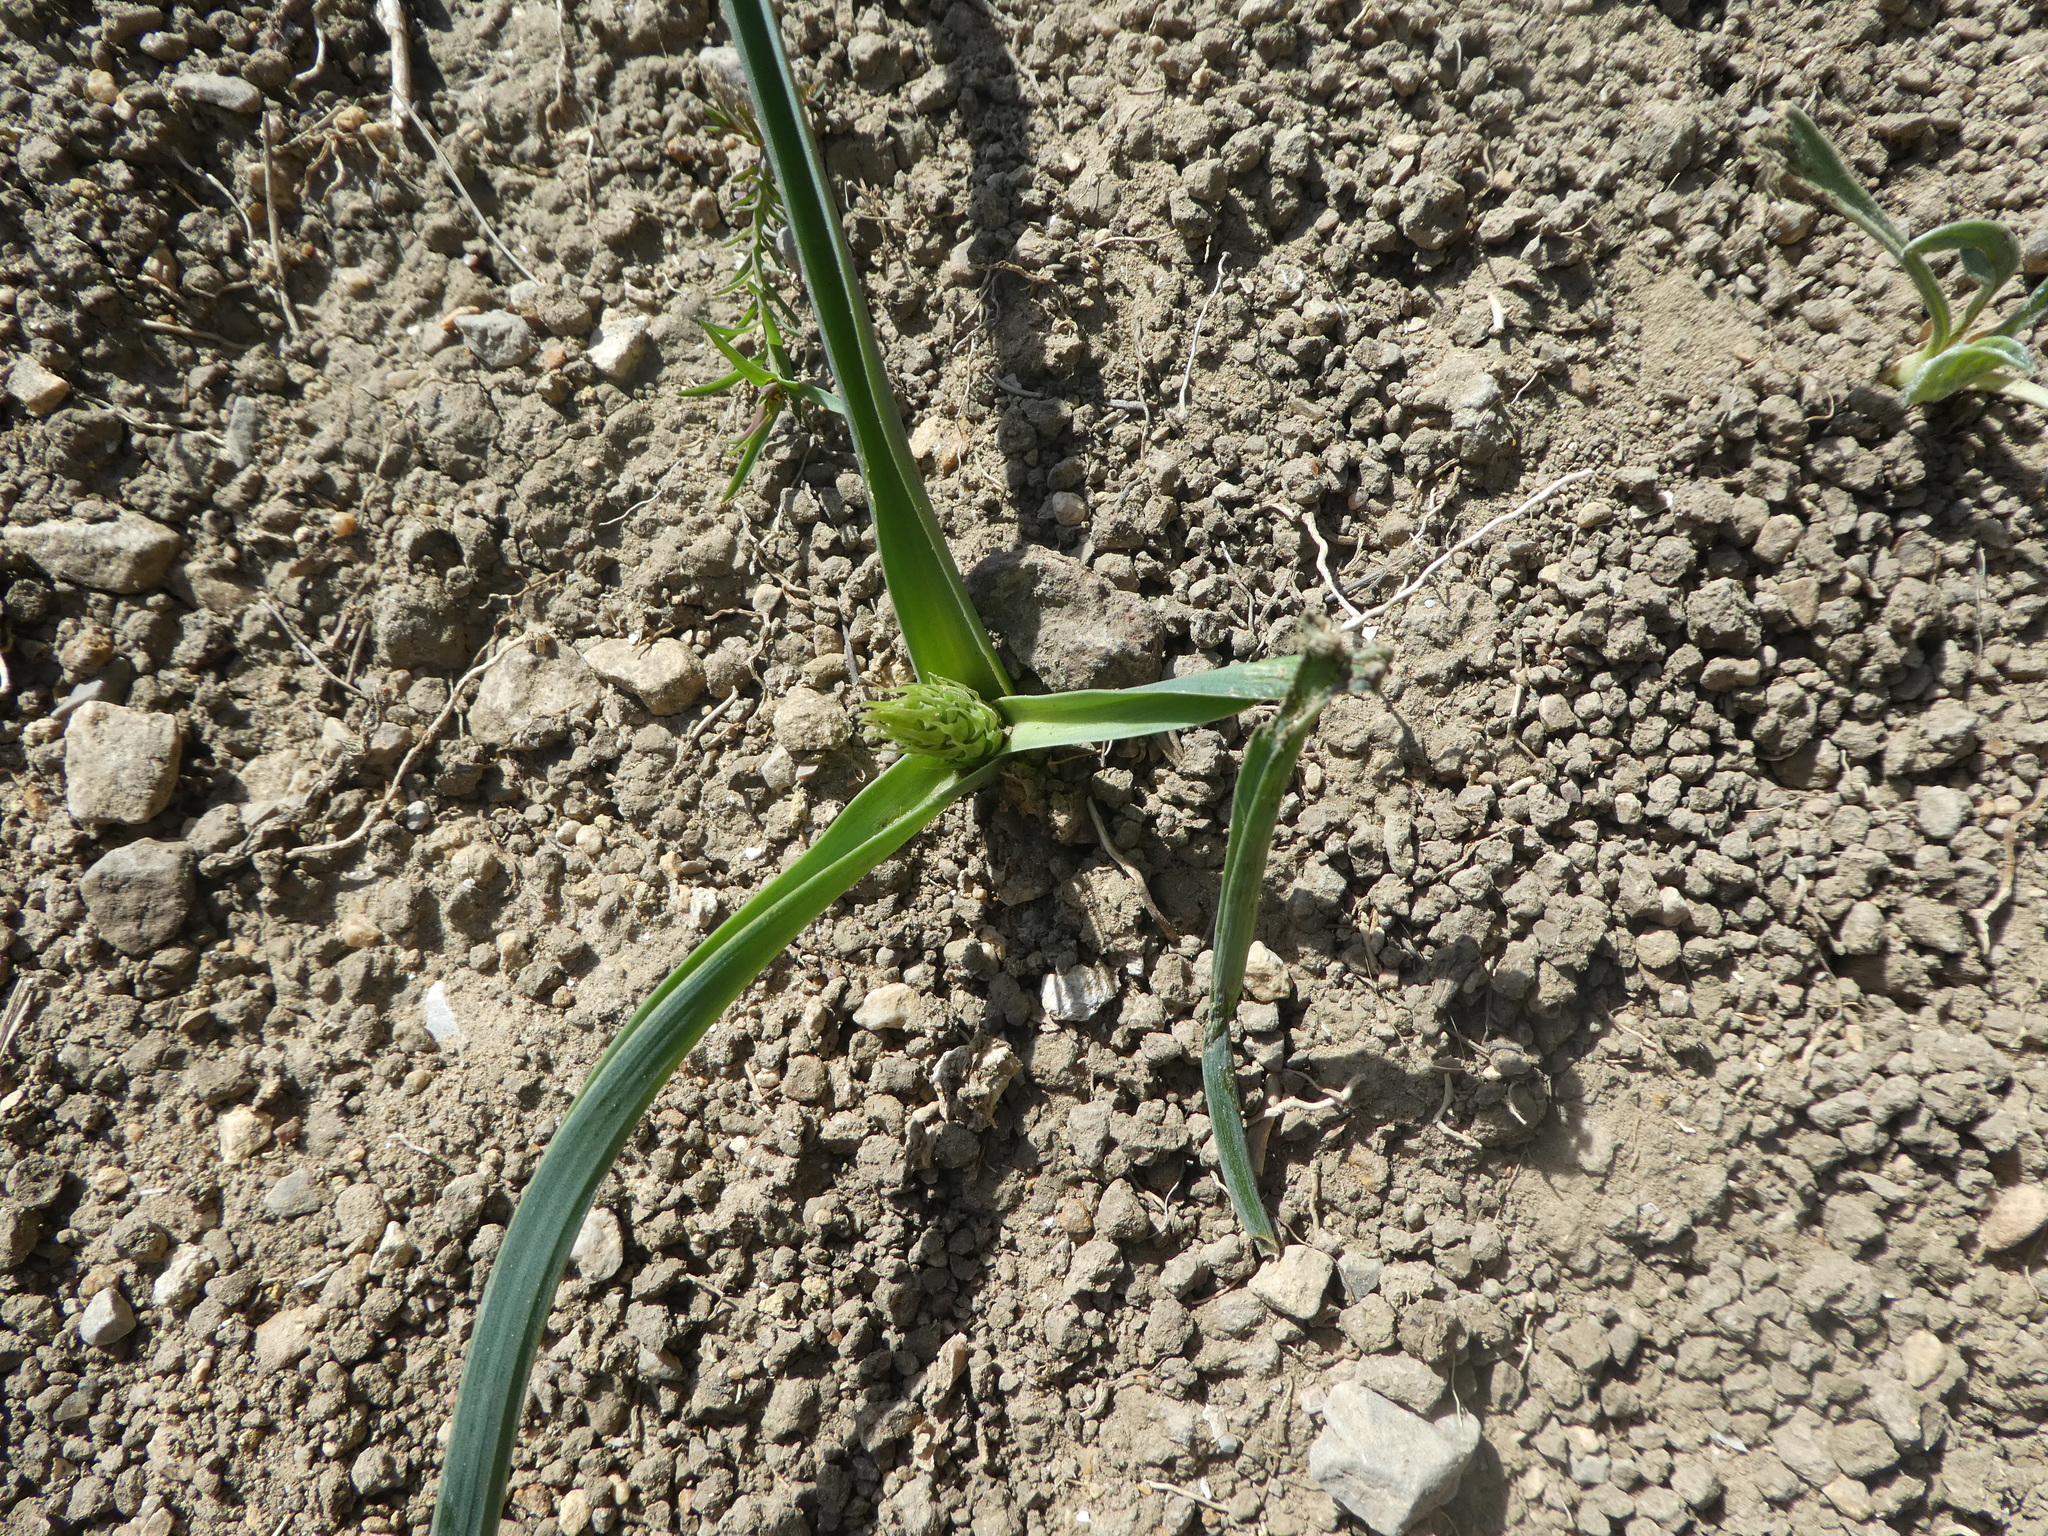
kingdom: Plantae
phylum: Tracheophyta
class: Liliopsida
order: Asparagales
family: Asparagaceae
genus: Ornithogalum
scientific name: Ornithogalum narbonense
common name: Bath-asparagus
